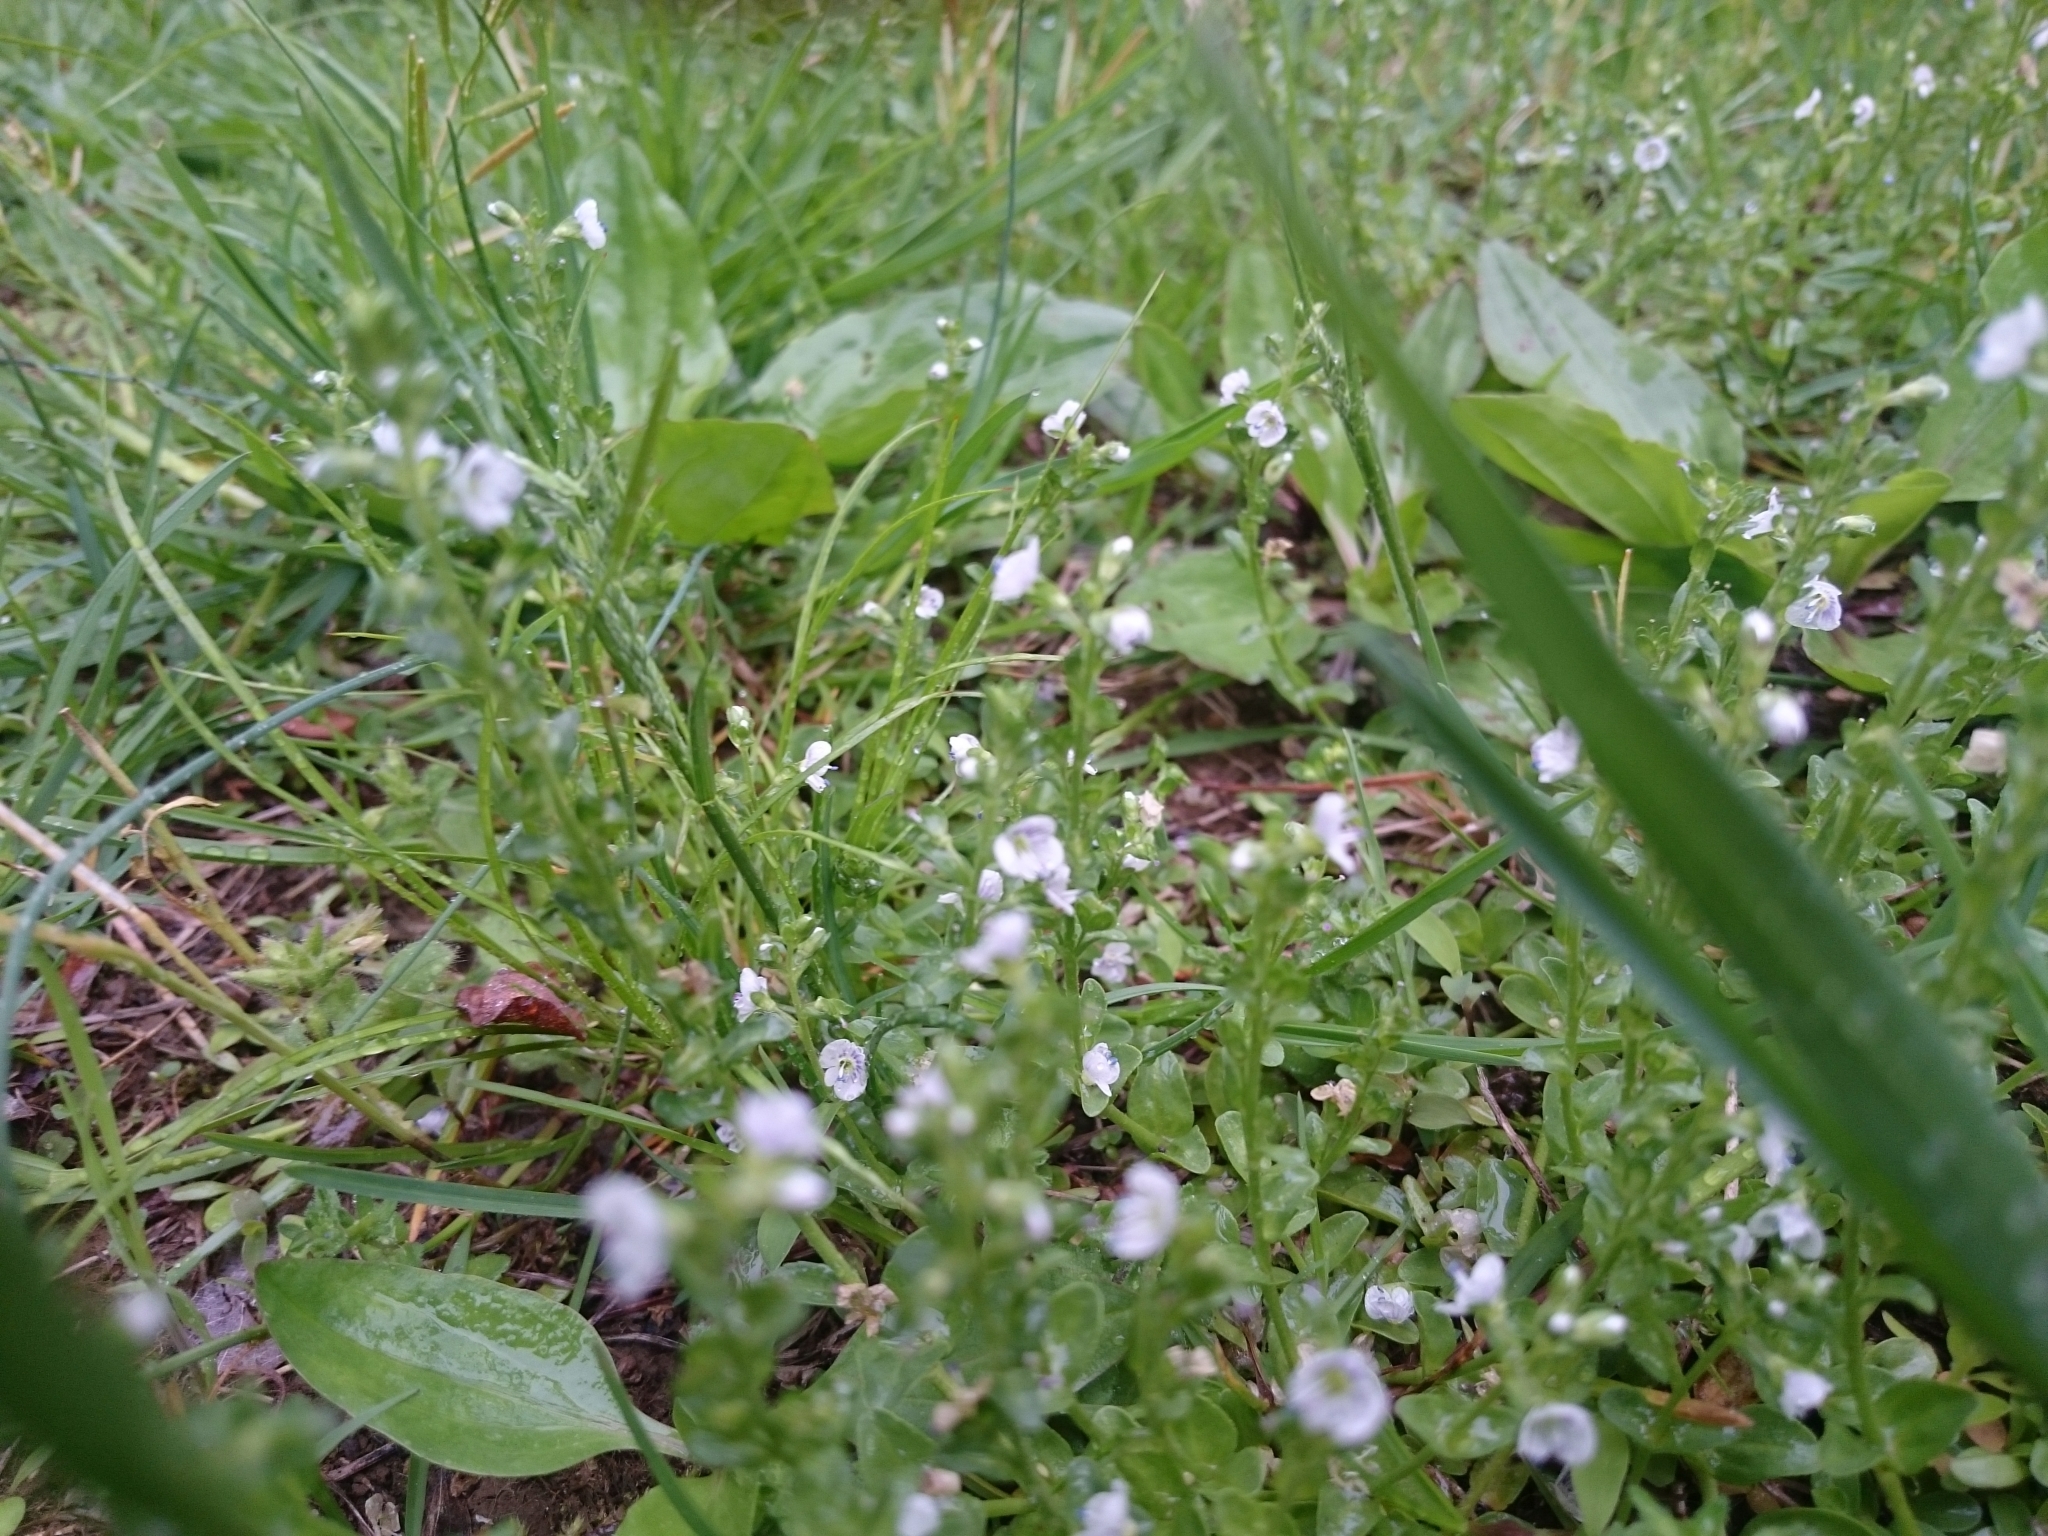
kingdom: Plantae
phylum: Tracheophyta
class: Magnoliopsida
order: Lamiales
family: Plantaginaceae
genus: Veronica
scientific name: Veronica serpyllifolia
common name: Thyme-leaved speedwell
